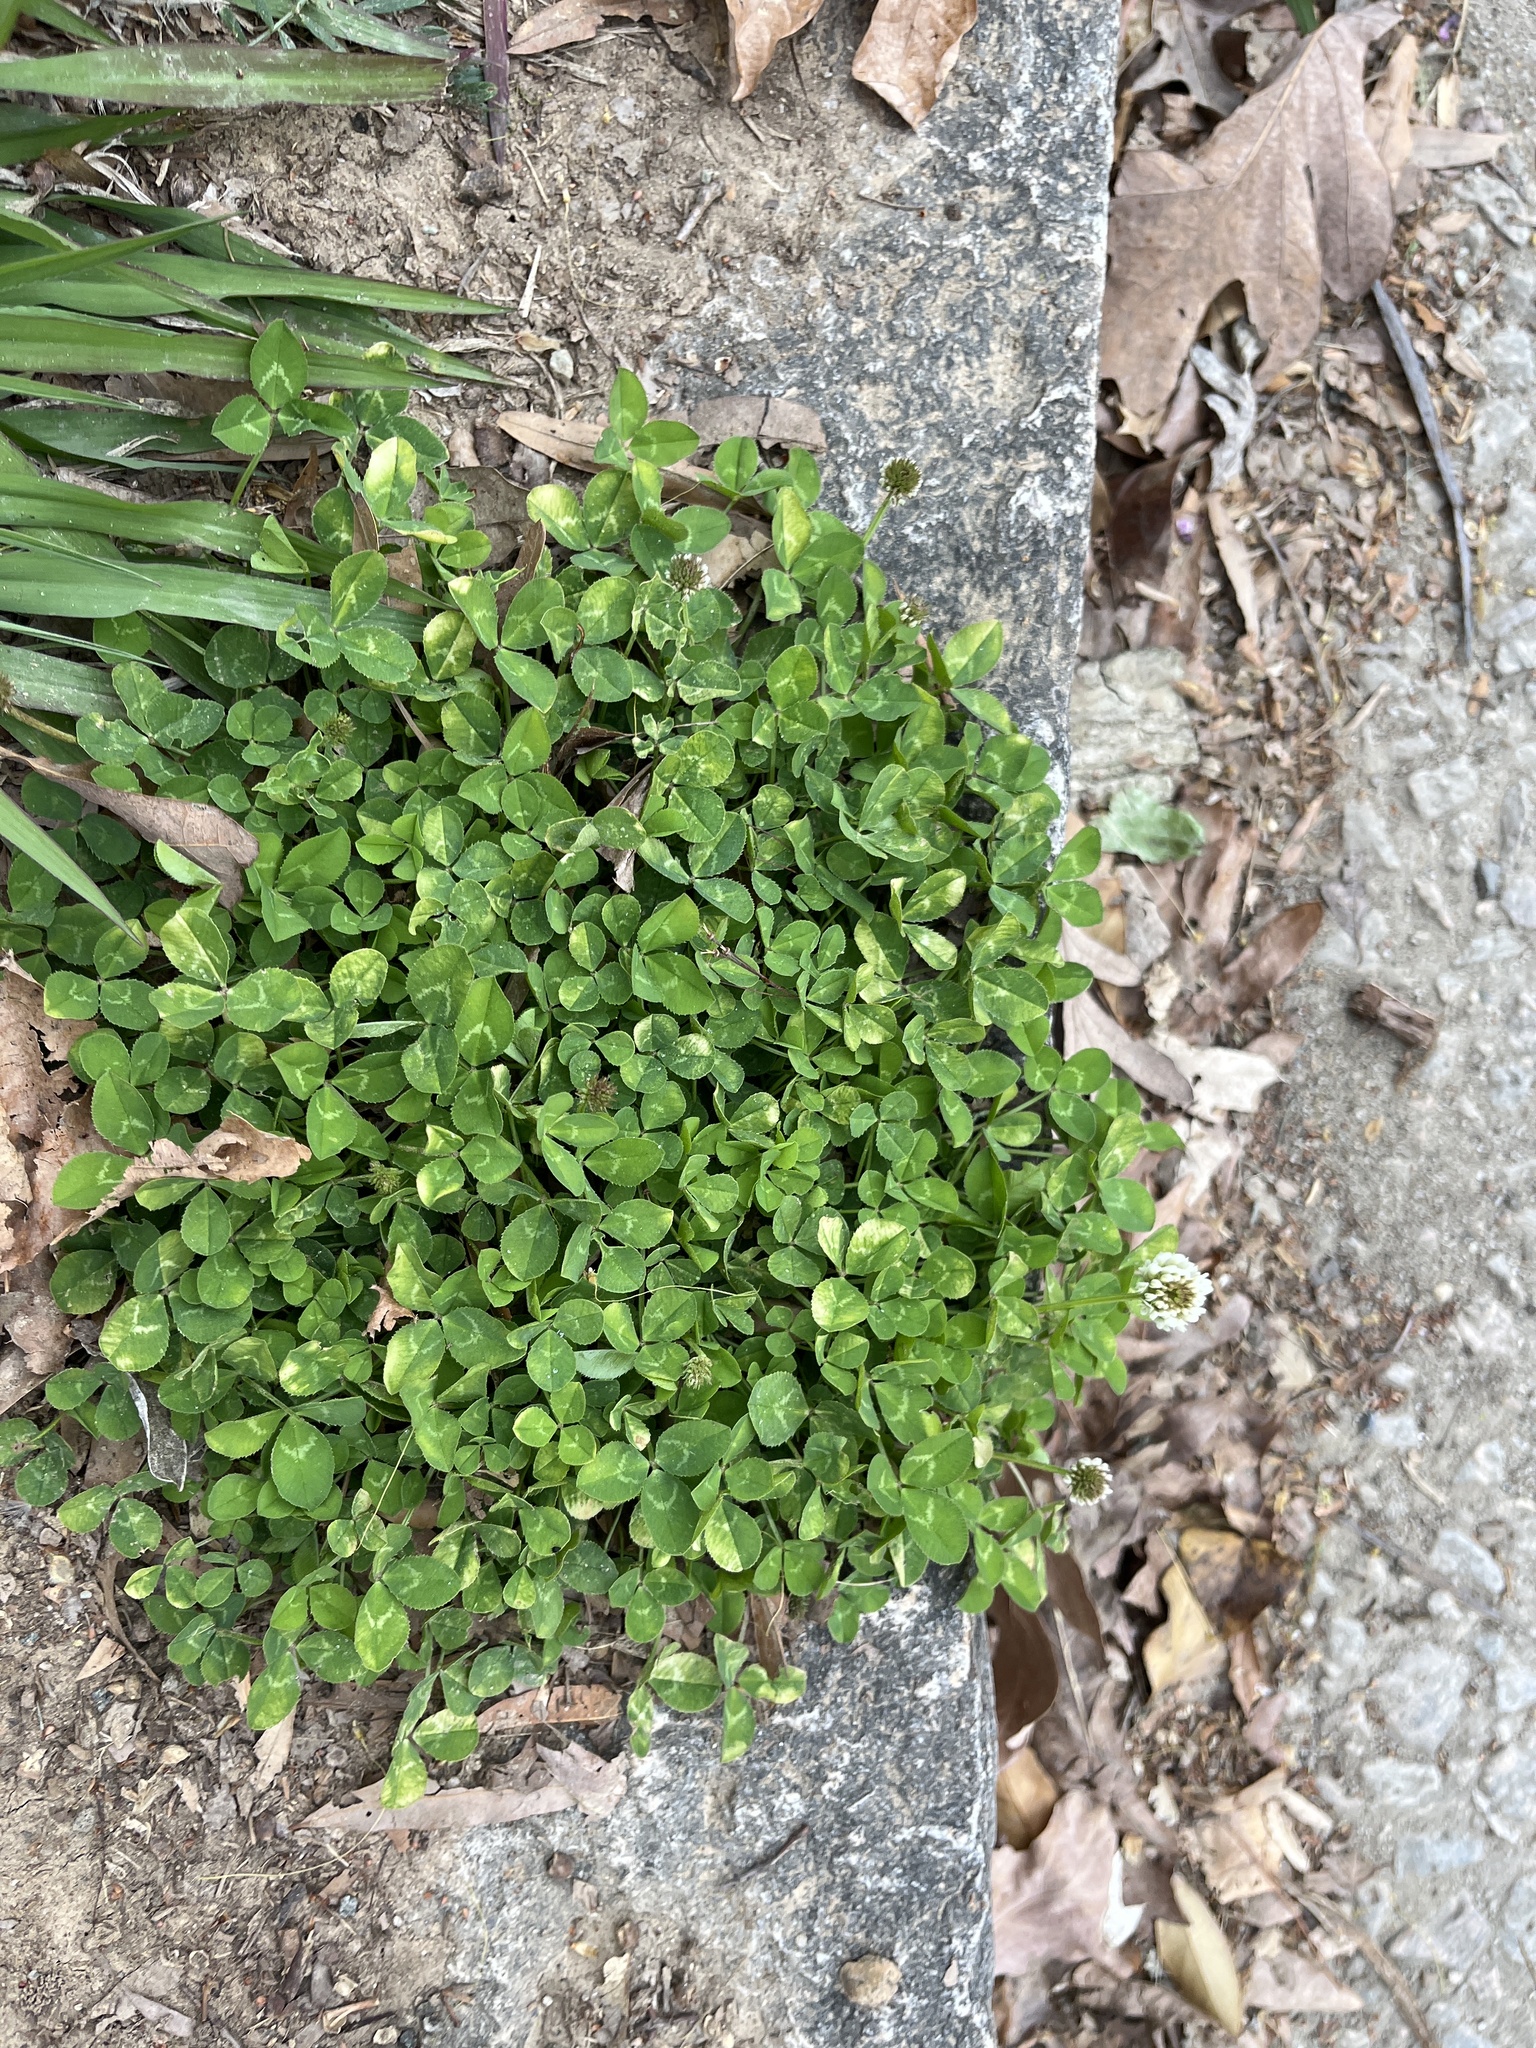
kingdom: Plantae
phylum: Tracheophyta
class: Magnoliopsida
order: Fabales
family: Fabaceae
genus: Trifolium
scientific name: Trifolium repens
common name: White clover
